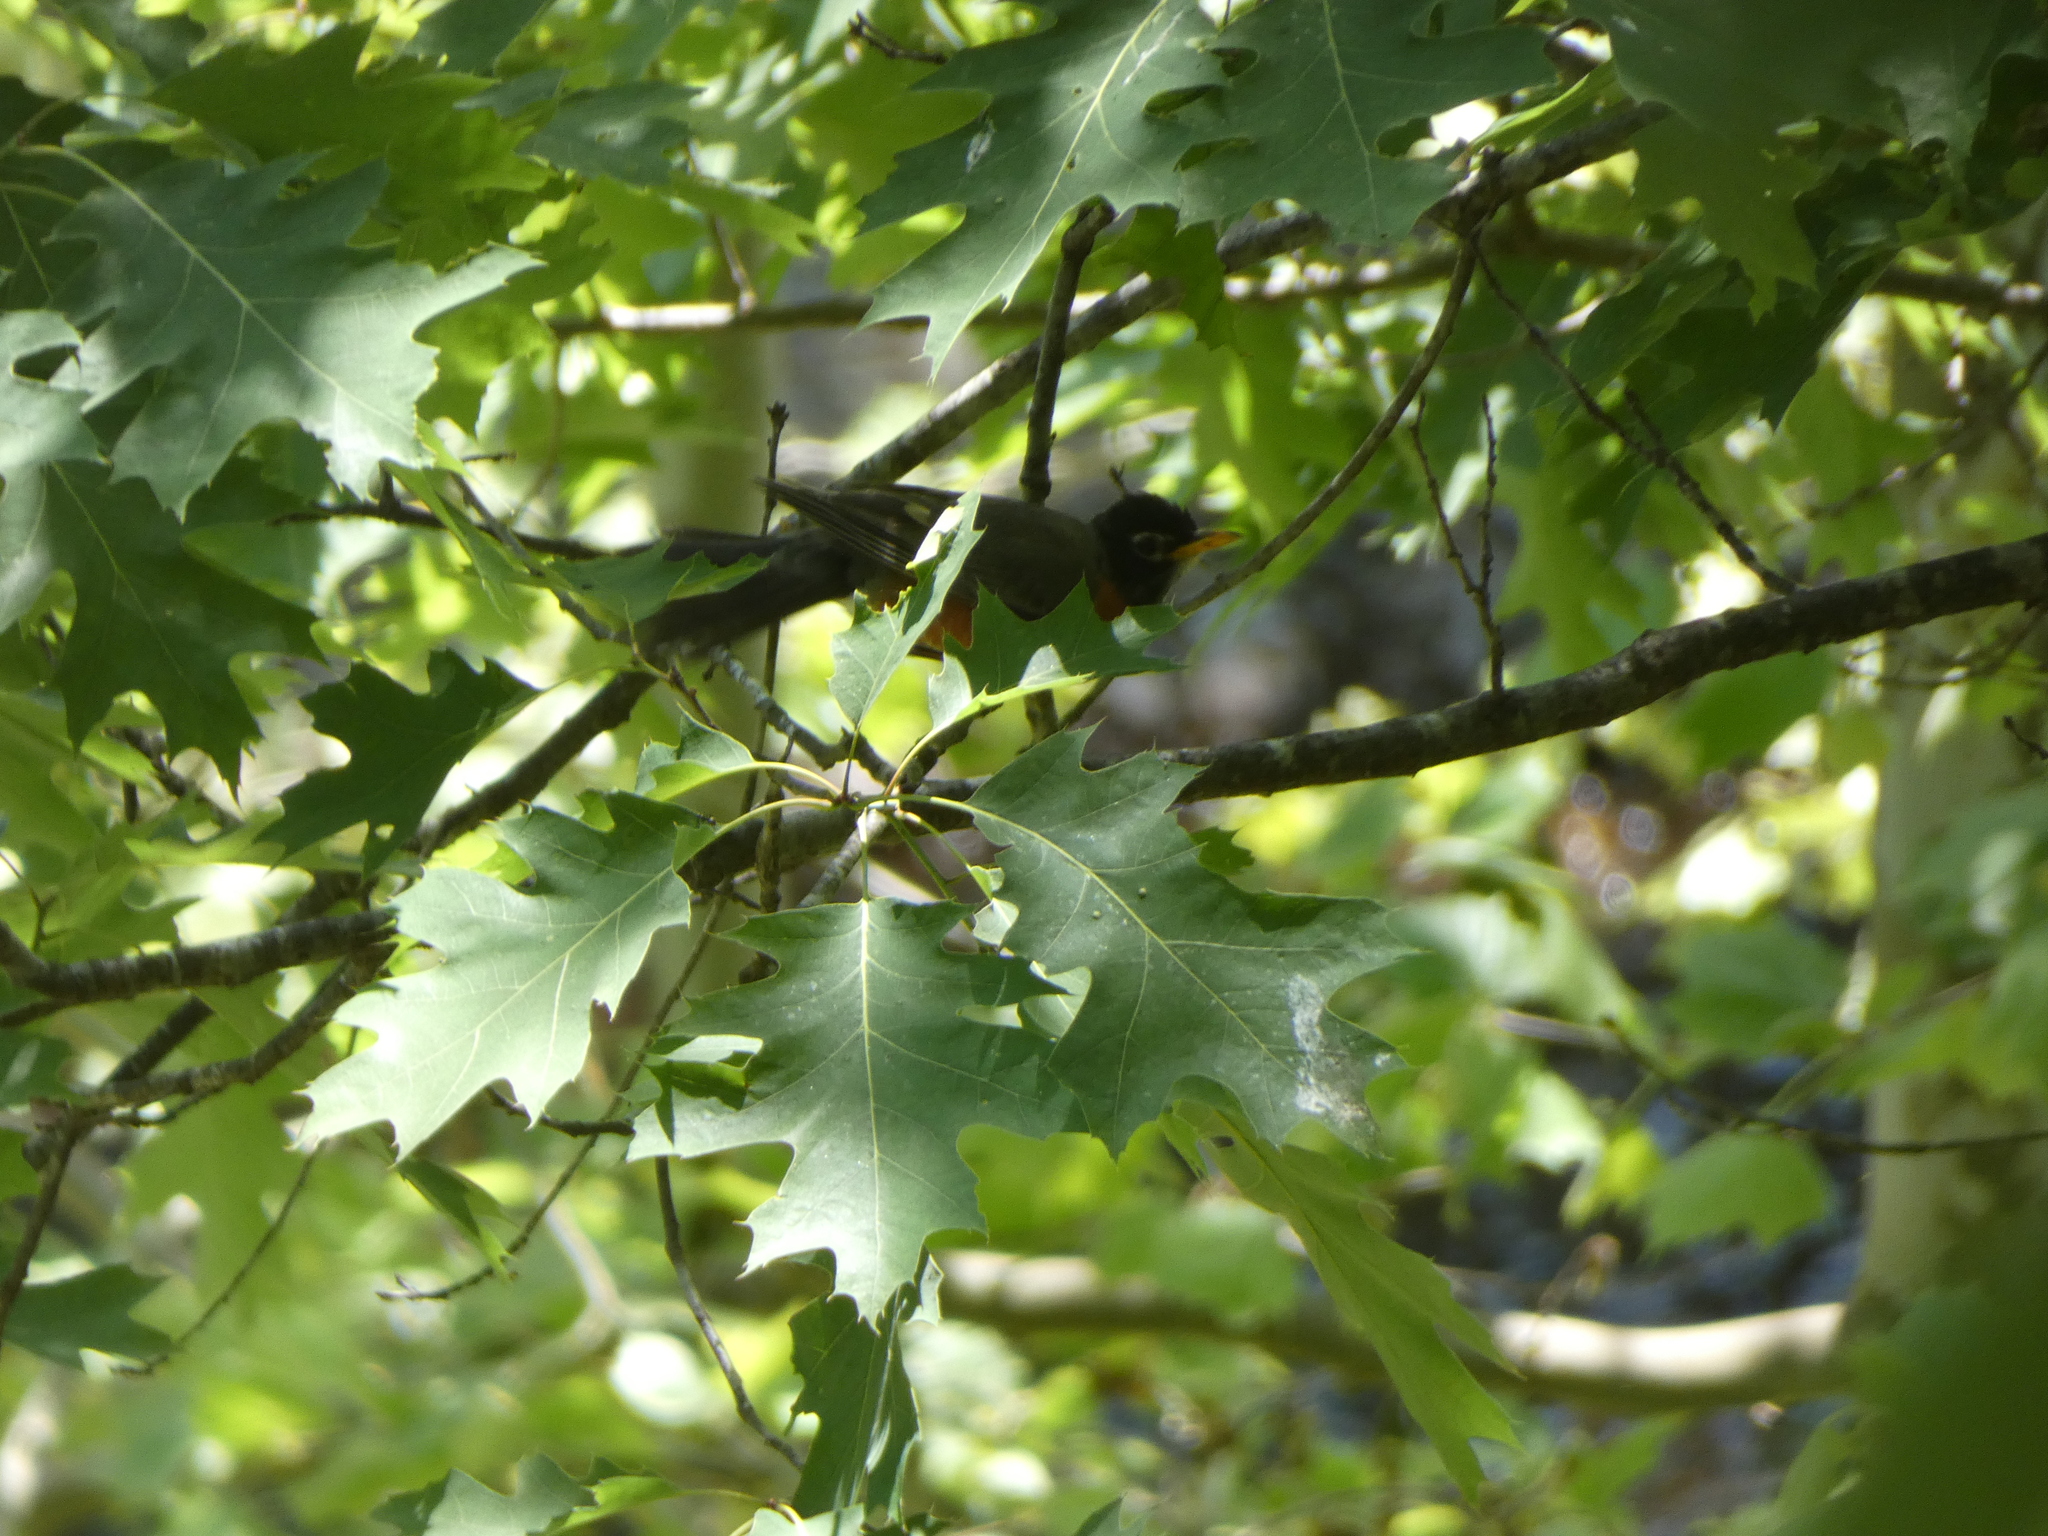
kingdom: Animalia
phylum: Chordata
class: Aves
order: Passeriformes
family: Turdidae
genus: Turdus
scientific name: Turdus migratorius
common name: American robin
